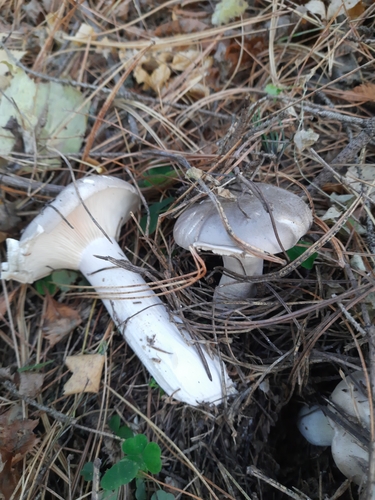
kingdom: Fungi
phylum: Basidiomycota
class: Agaricomycetes
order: Agaricales
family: Tricholomataceae
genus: Clitocybe
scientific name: Clitocybe nebularis
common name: Clouded agaric
